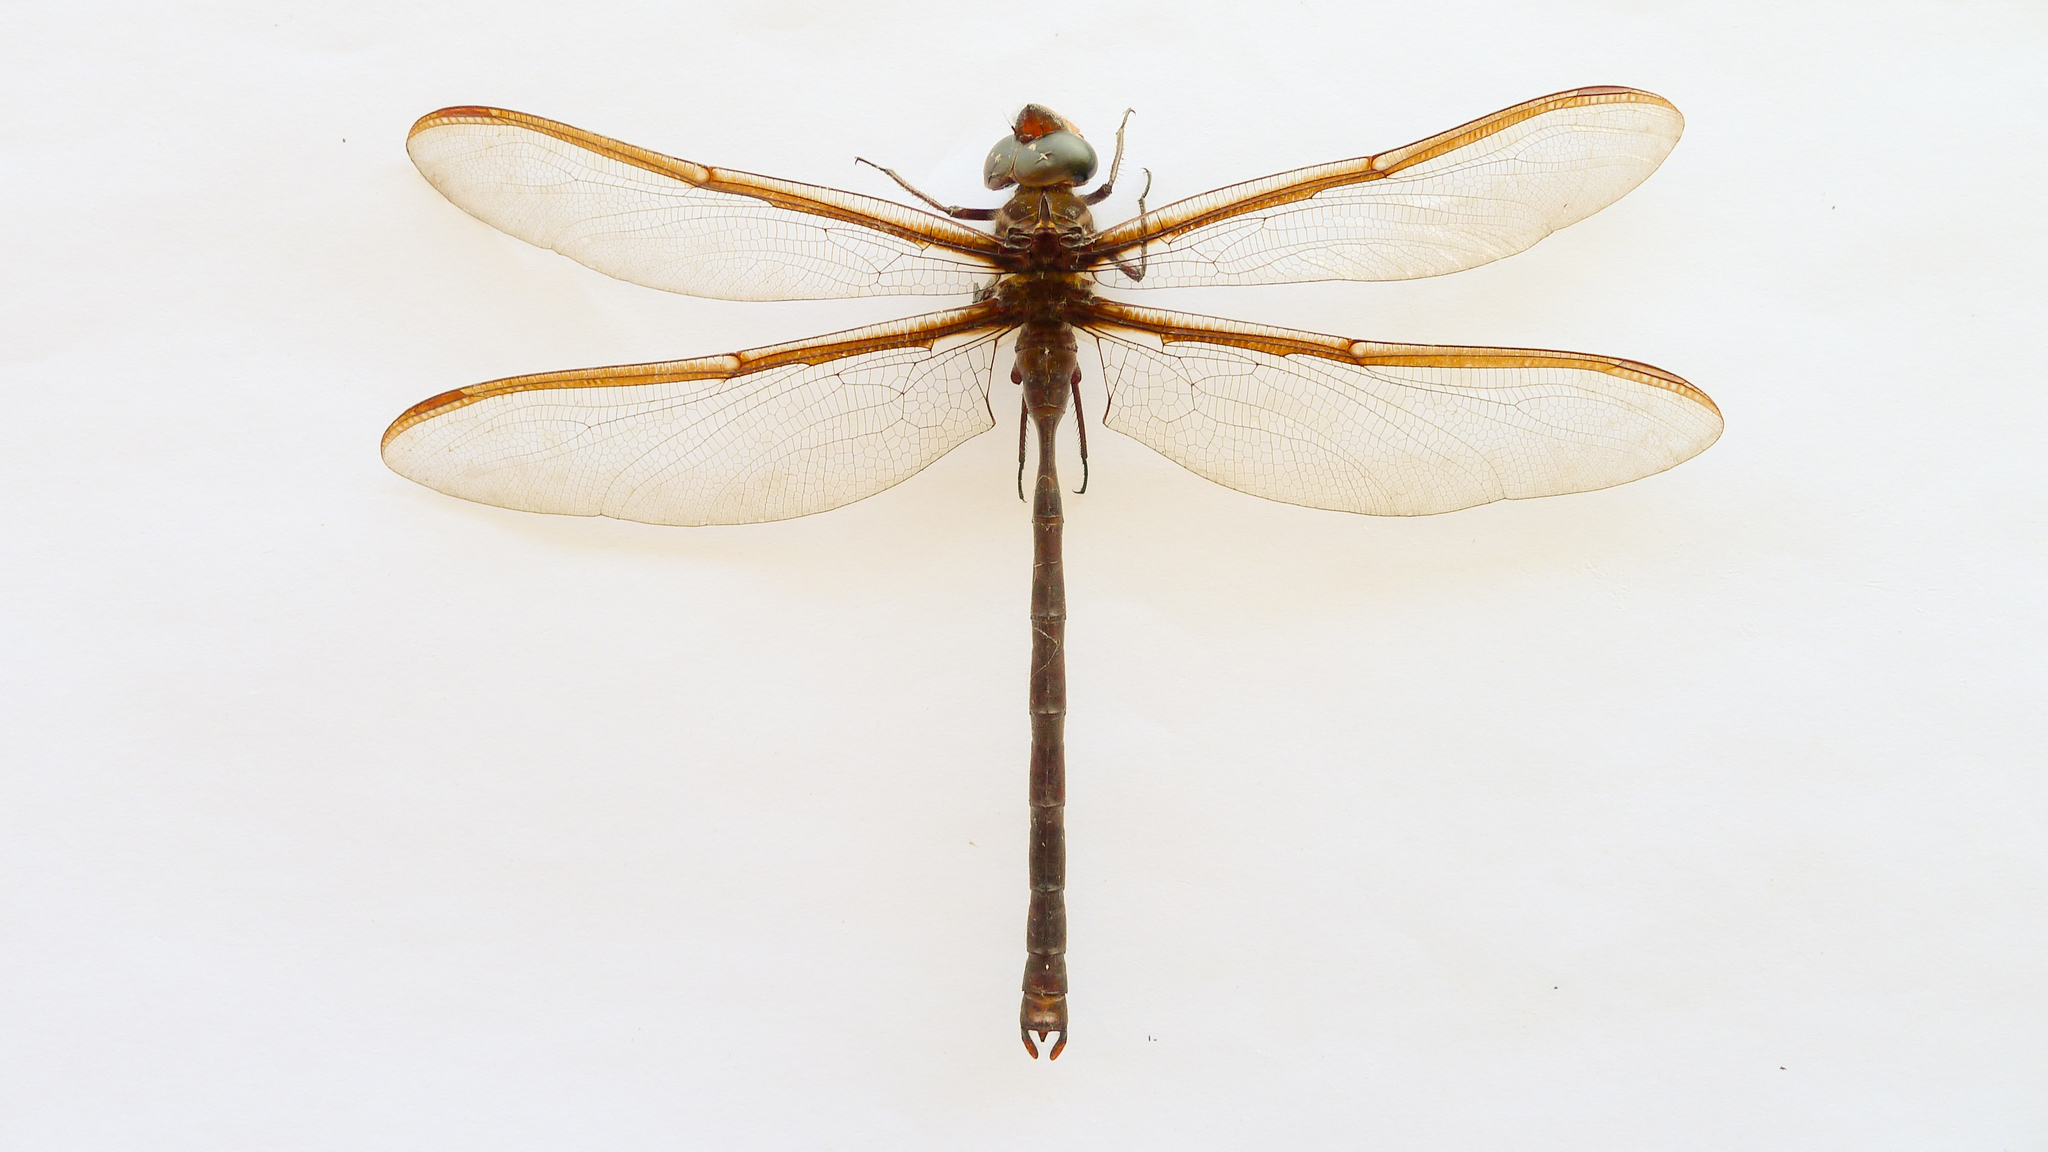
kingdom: Animalia
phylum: Arthropoda
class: Insecta
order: Odonata
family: Aeshnidae
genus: Austrophlebia
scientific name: Austrophlebia costalis
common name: Southern giant darner
